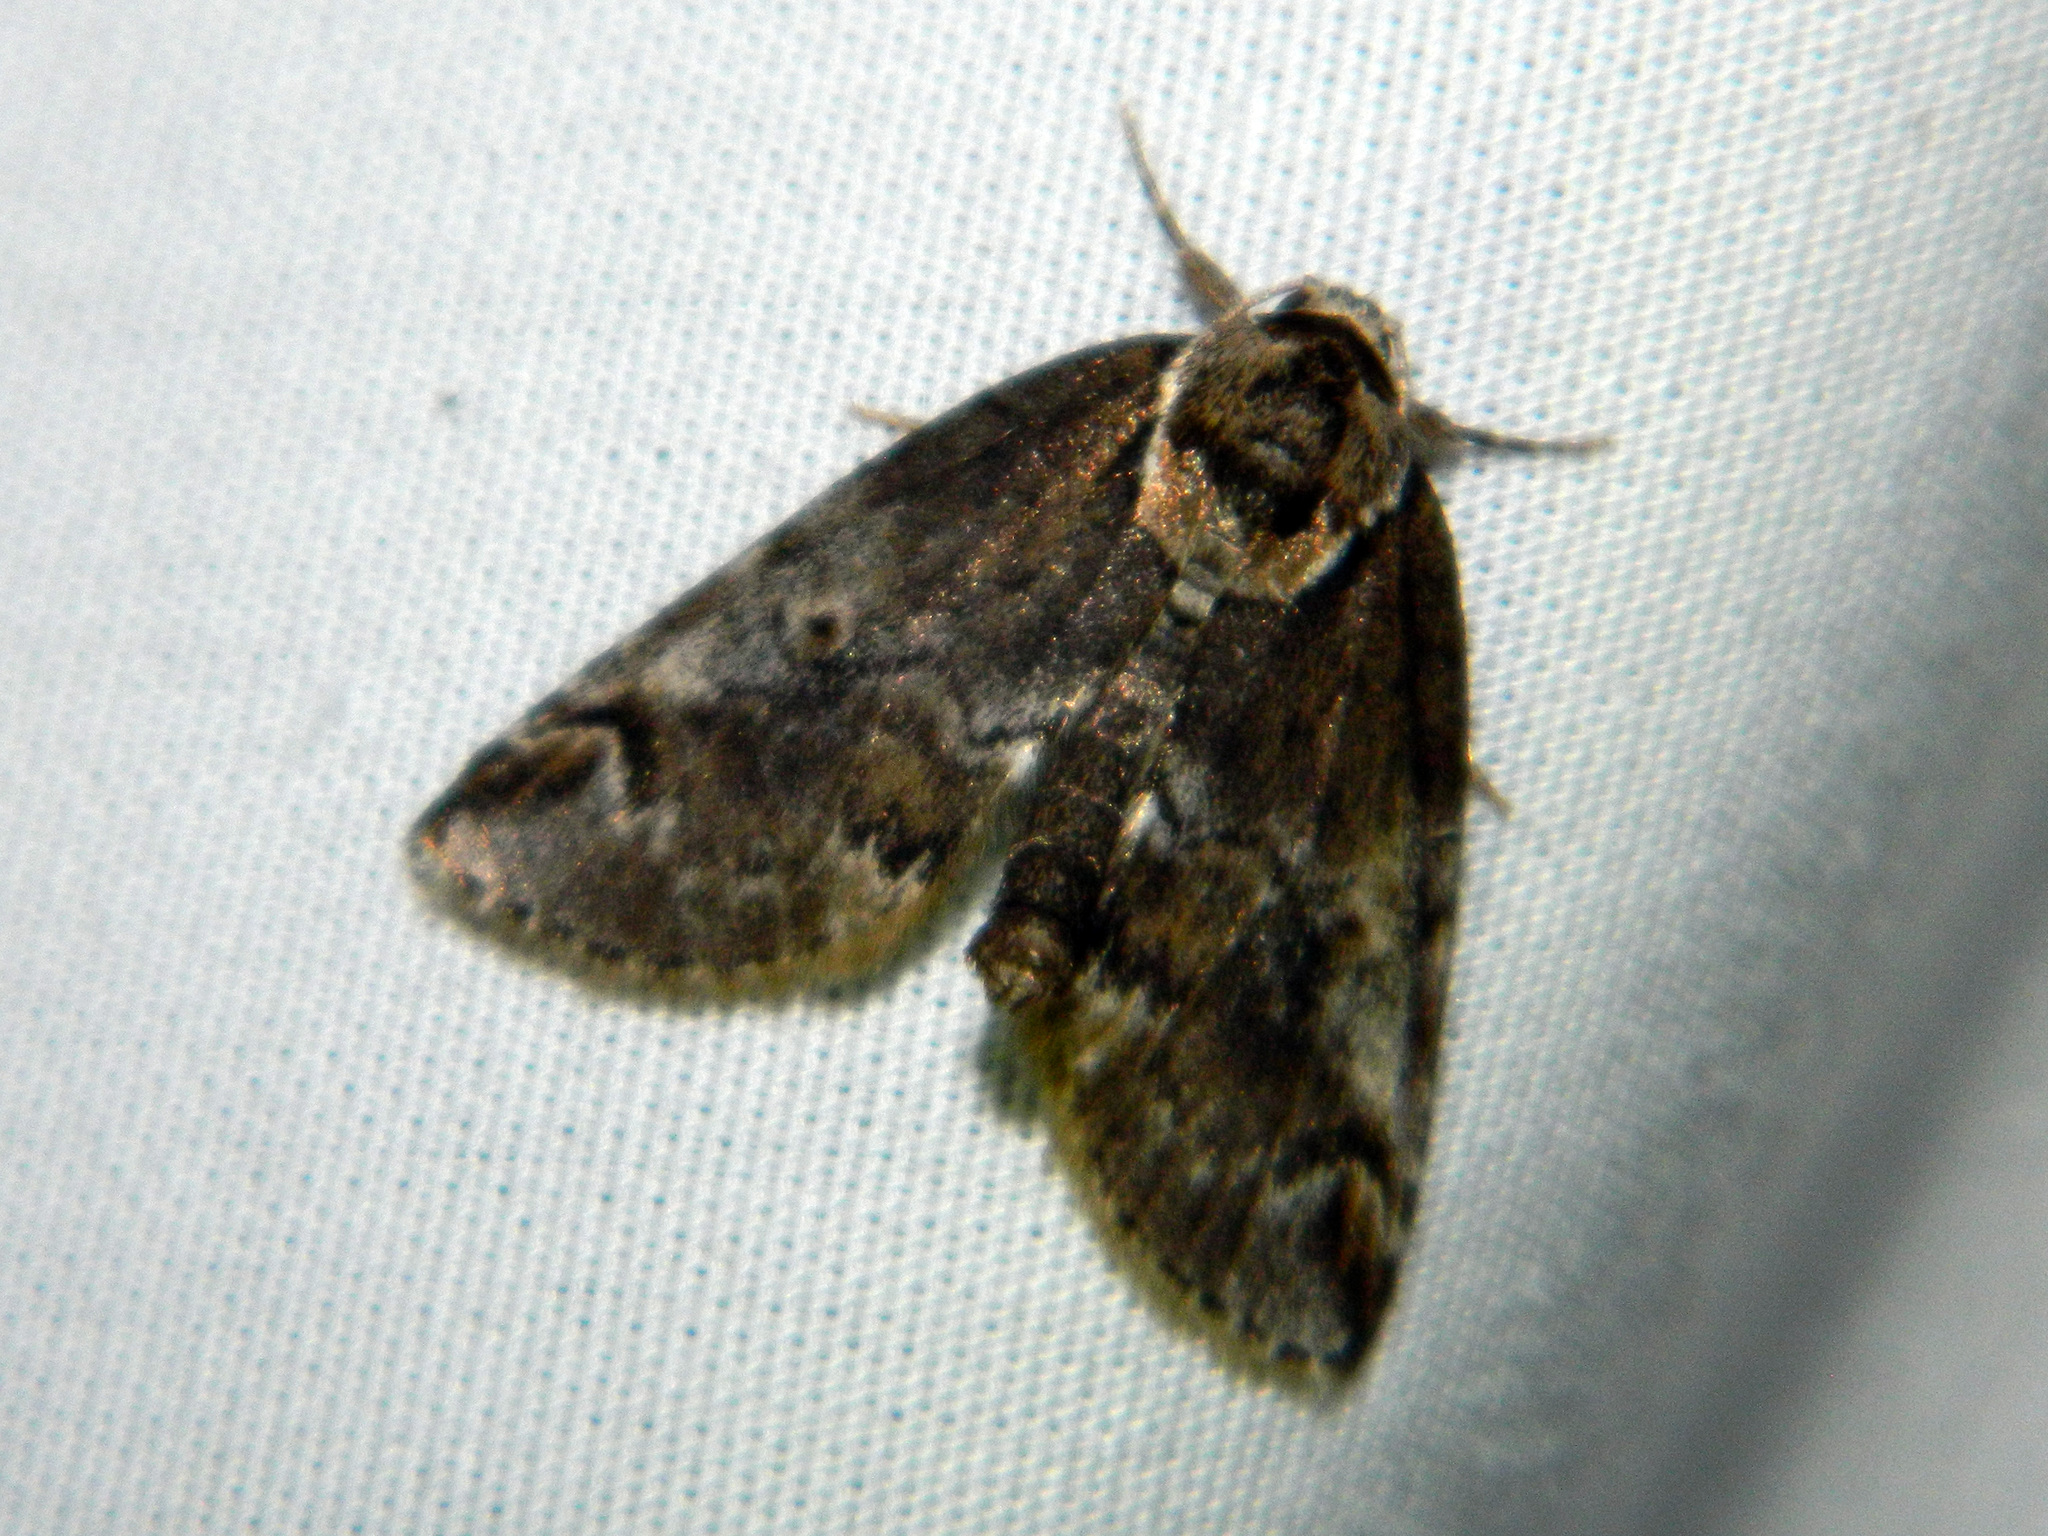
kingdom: Animalia
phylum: Arthropoda
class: Insecta
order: Lepidoptera
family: Nolidae
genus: Baileya
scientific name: Baileya ophthalmica
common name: Eyed baileya moth
